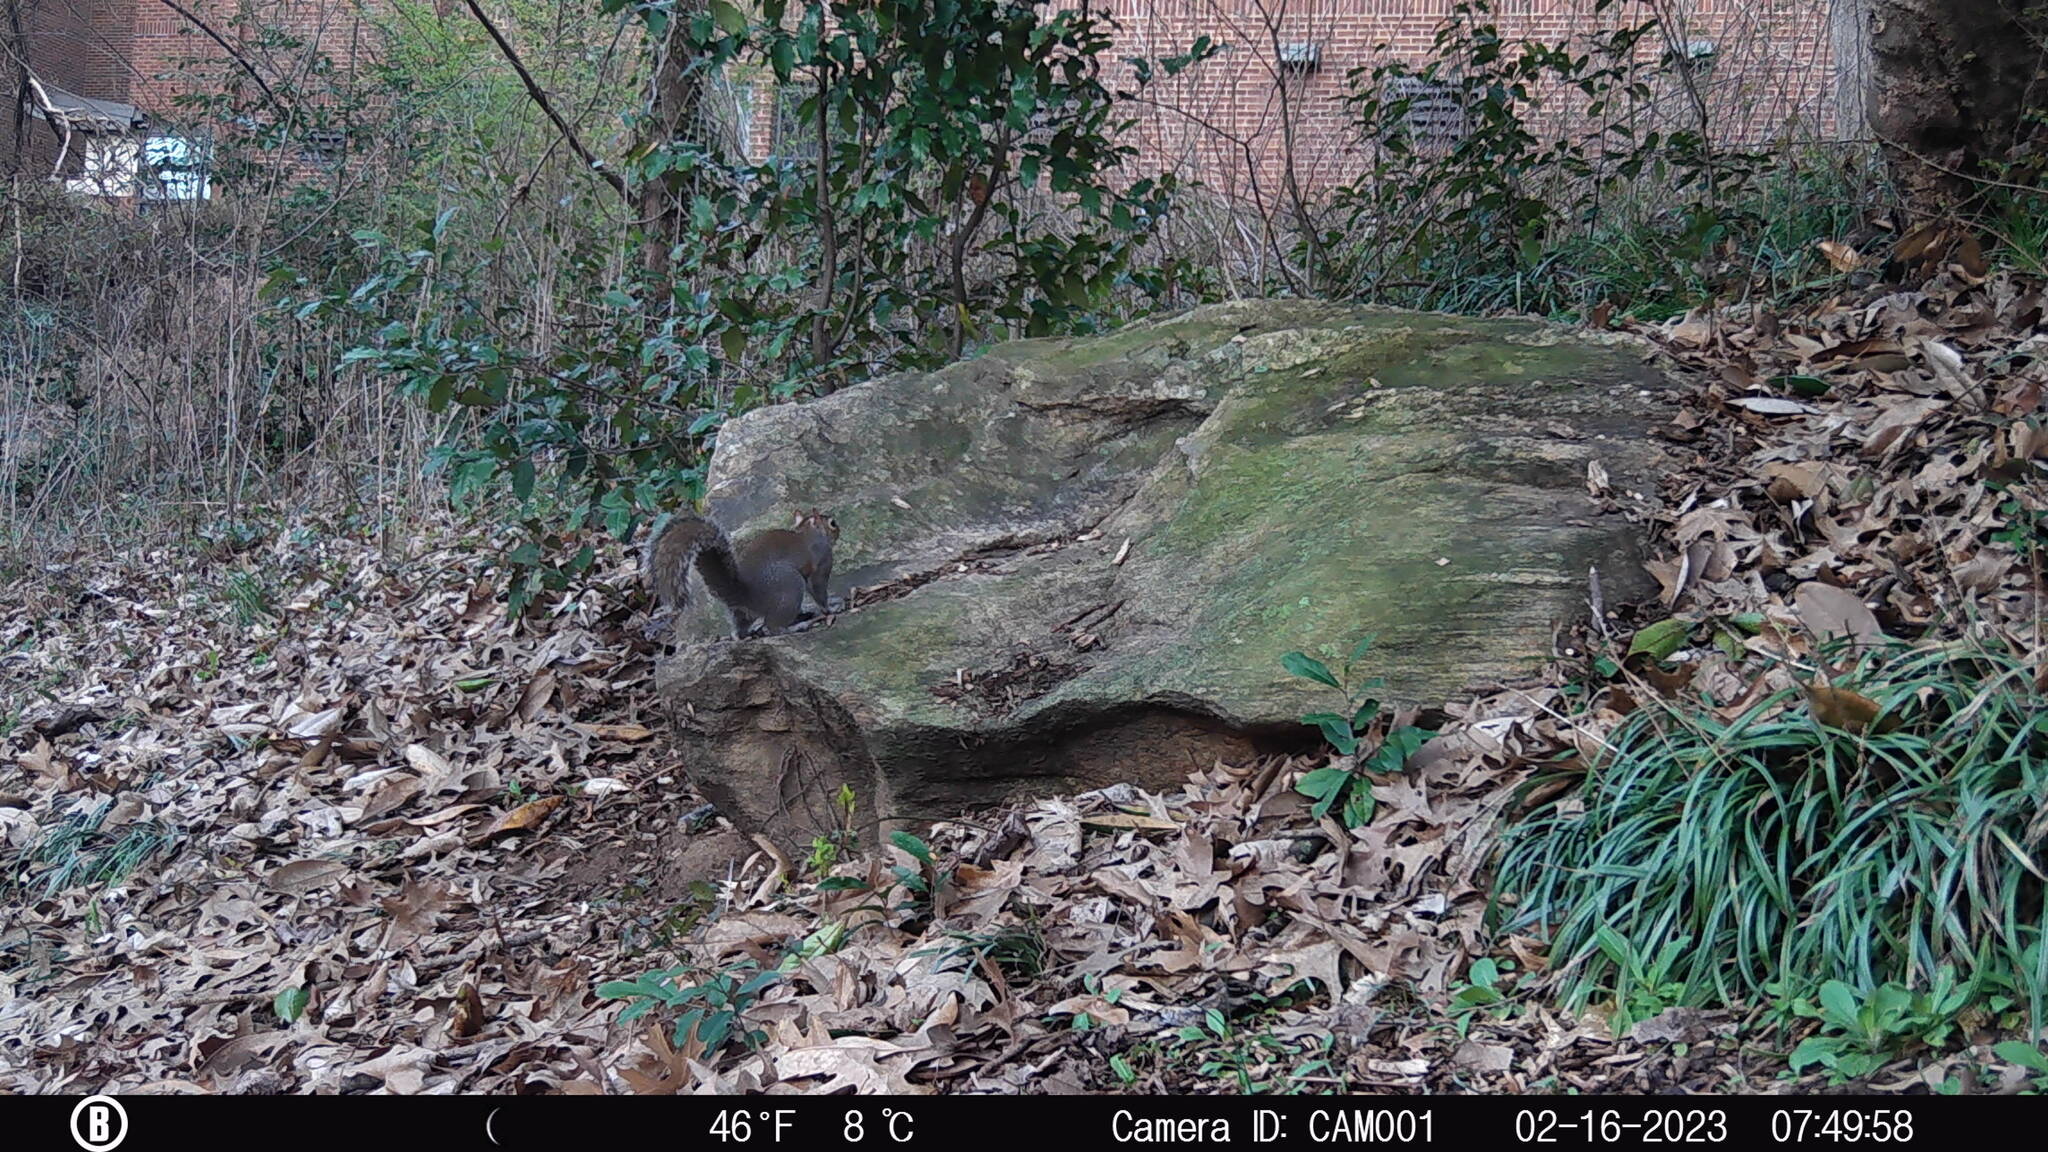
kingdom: Animalia
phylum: Chordata
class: Mammalia
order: Rodentia
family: Sciuridae
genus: Sciurus
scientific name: Sciurus carolinensis
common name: Eastern gray squirrel
